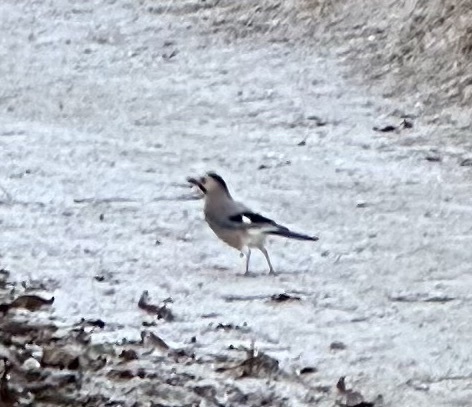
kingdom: Animalia
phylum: Chordata
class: Aves
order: Passeriformes
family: Corvidae
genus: Garrulus
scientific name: Garrulus glandarius
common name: Eurasian jay
